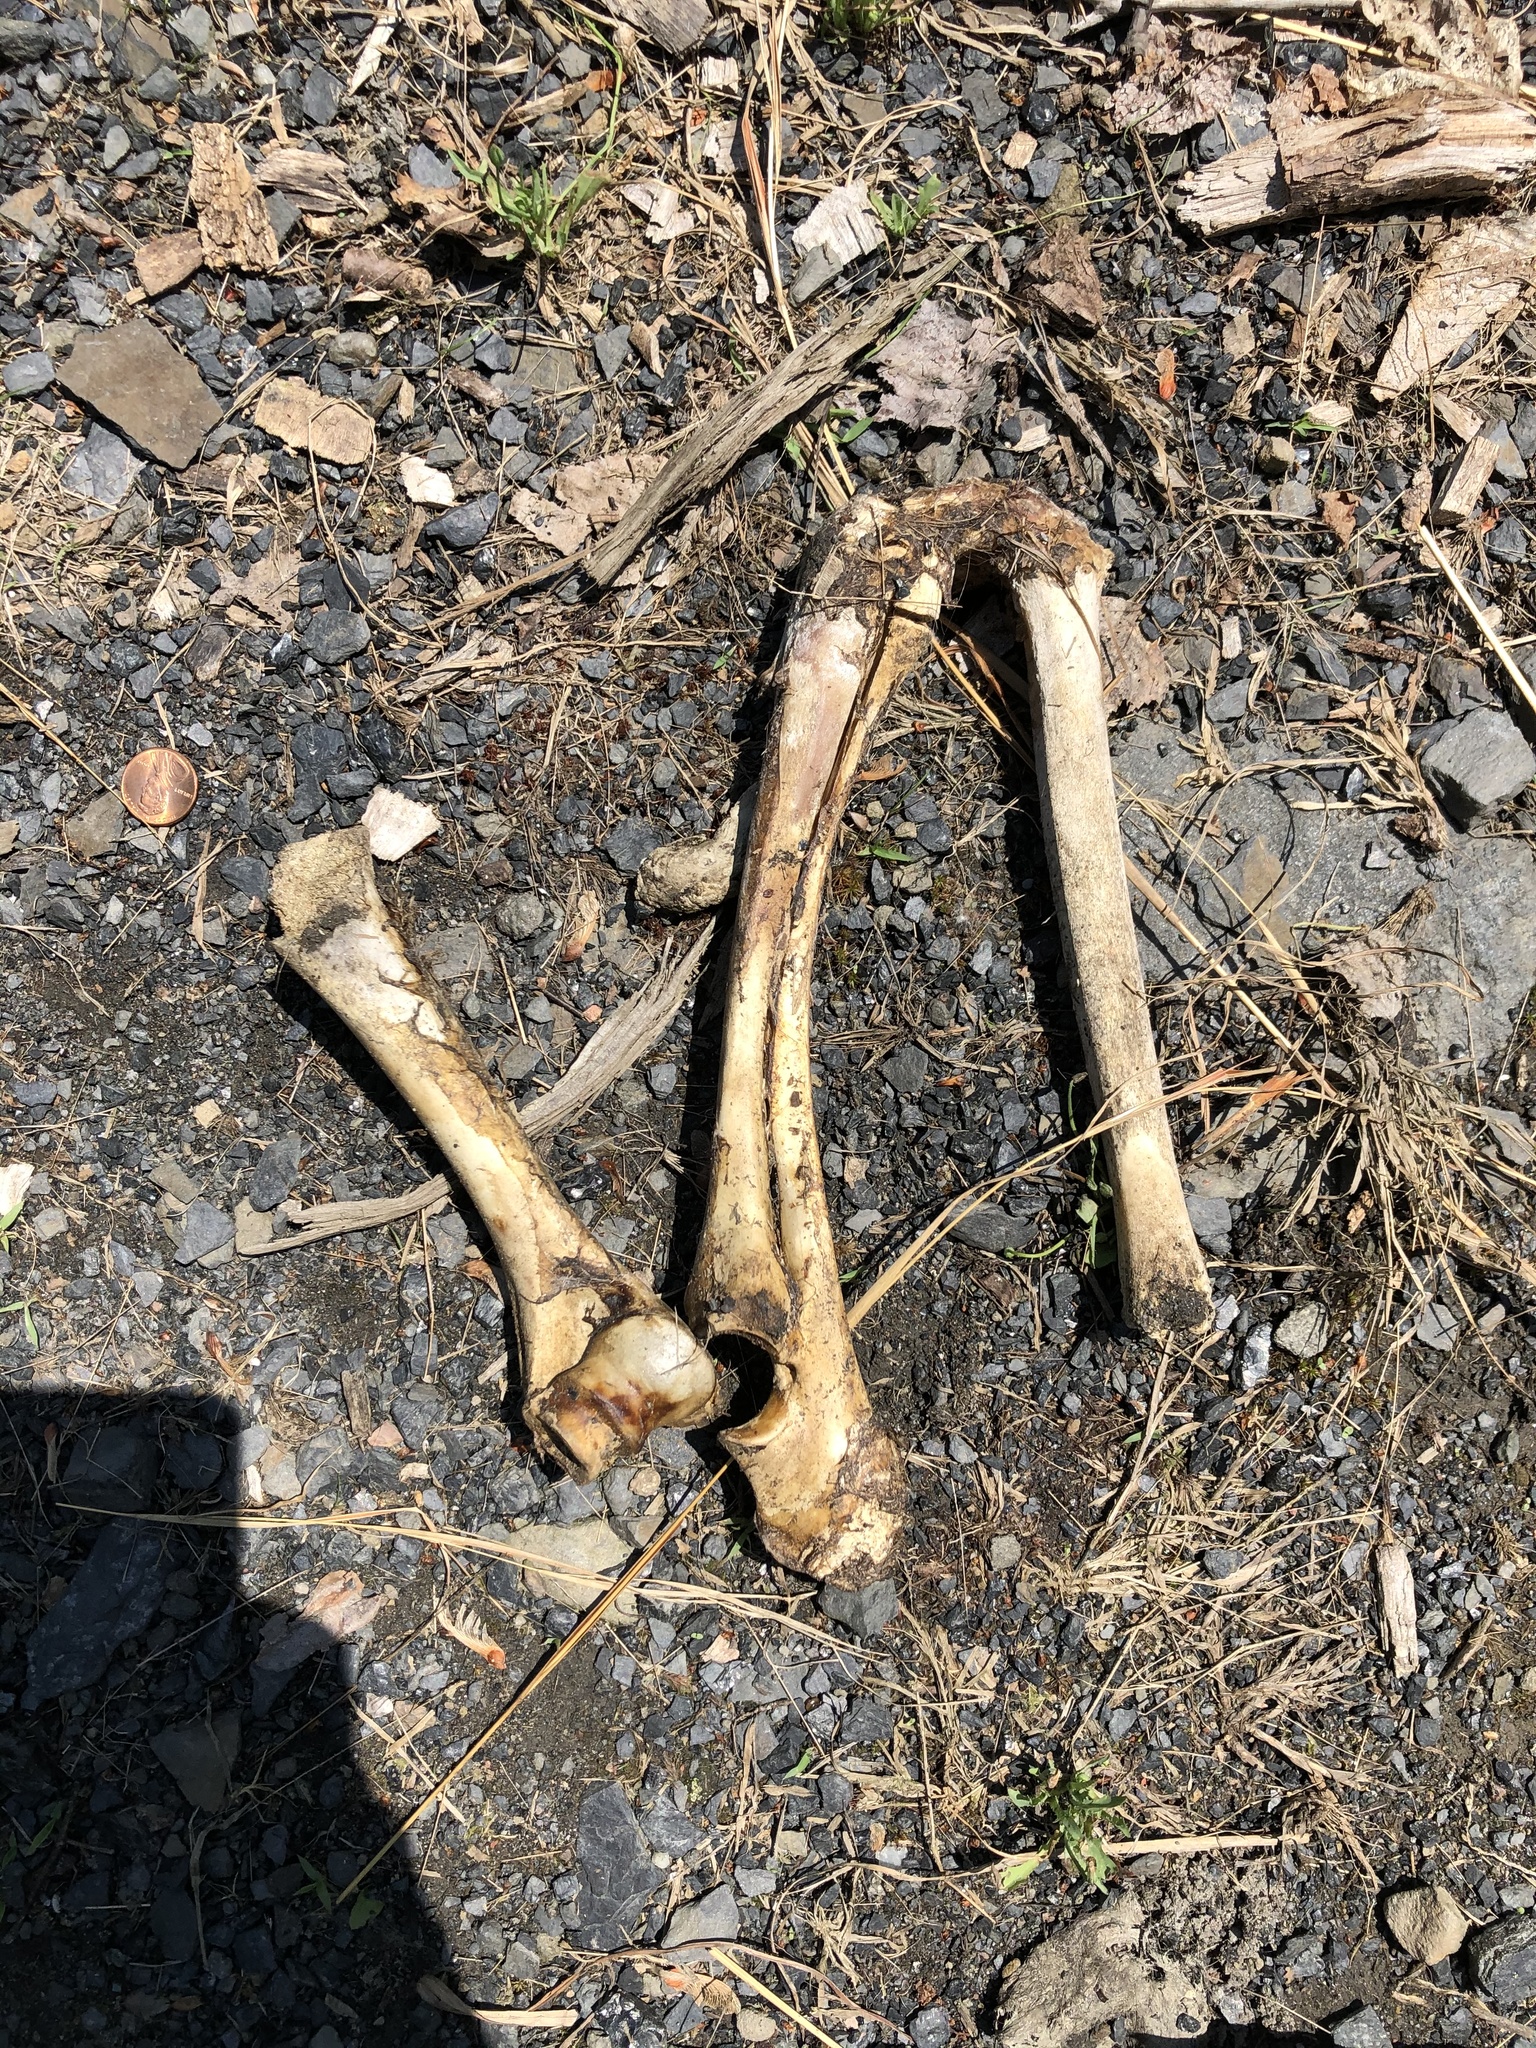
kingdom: Animalia
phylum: Chordata
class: Mammalia
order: Artiodactyla
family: Cervidae
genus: Odocoileus
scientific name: Odocoileus virginianus
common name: White-tailed deer
